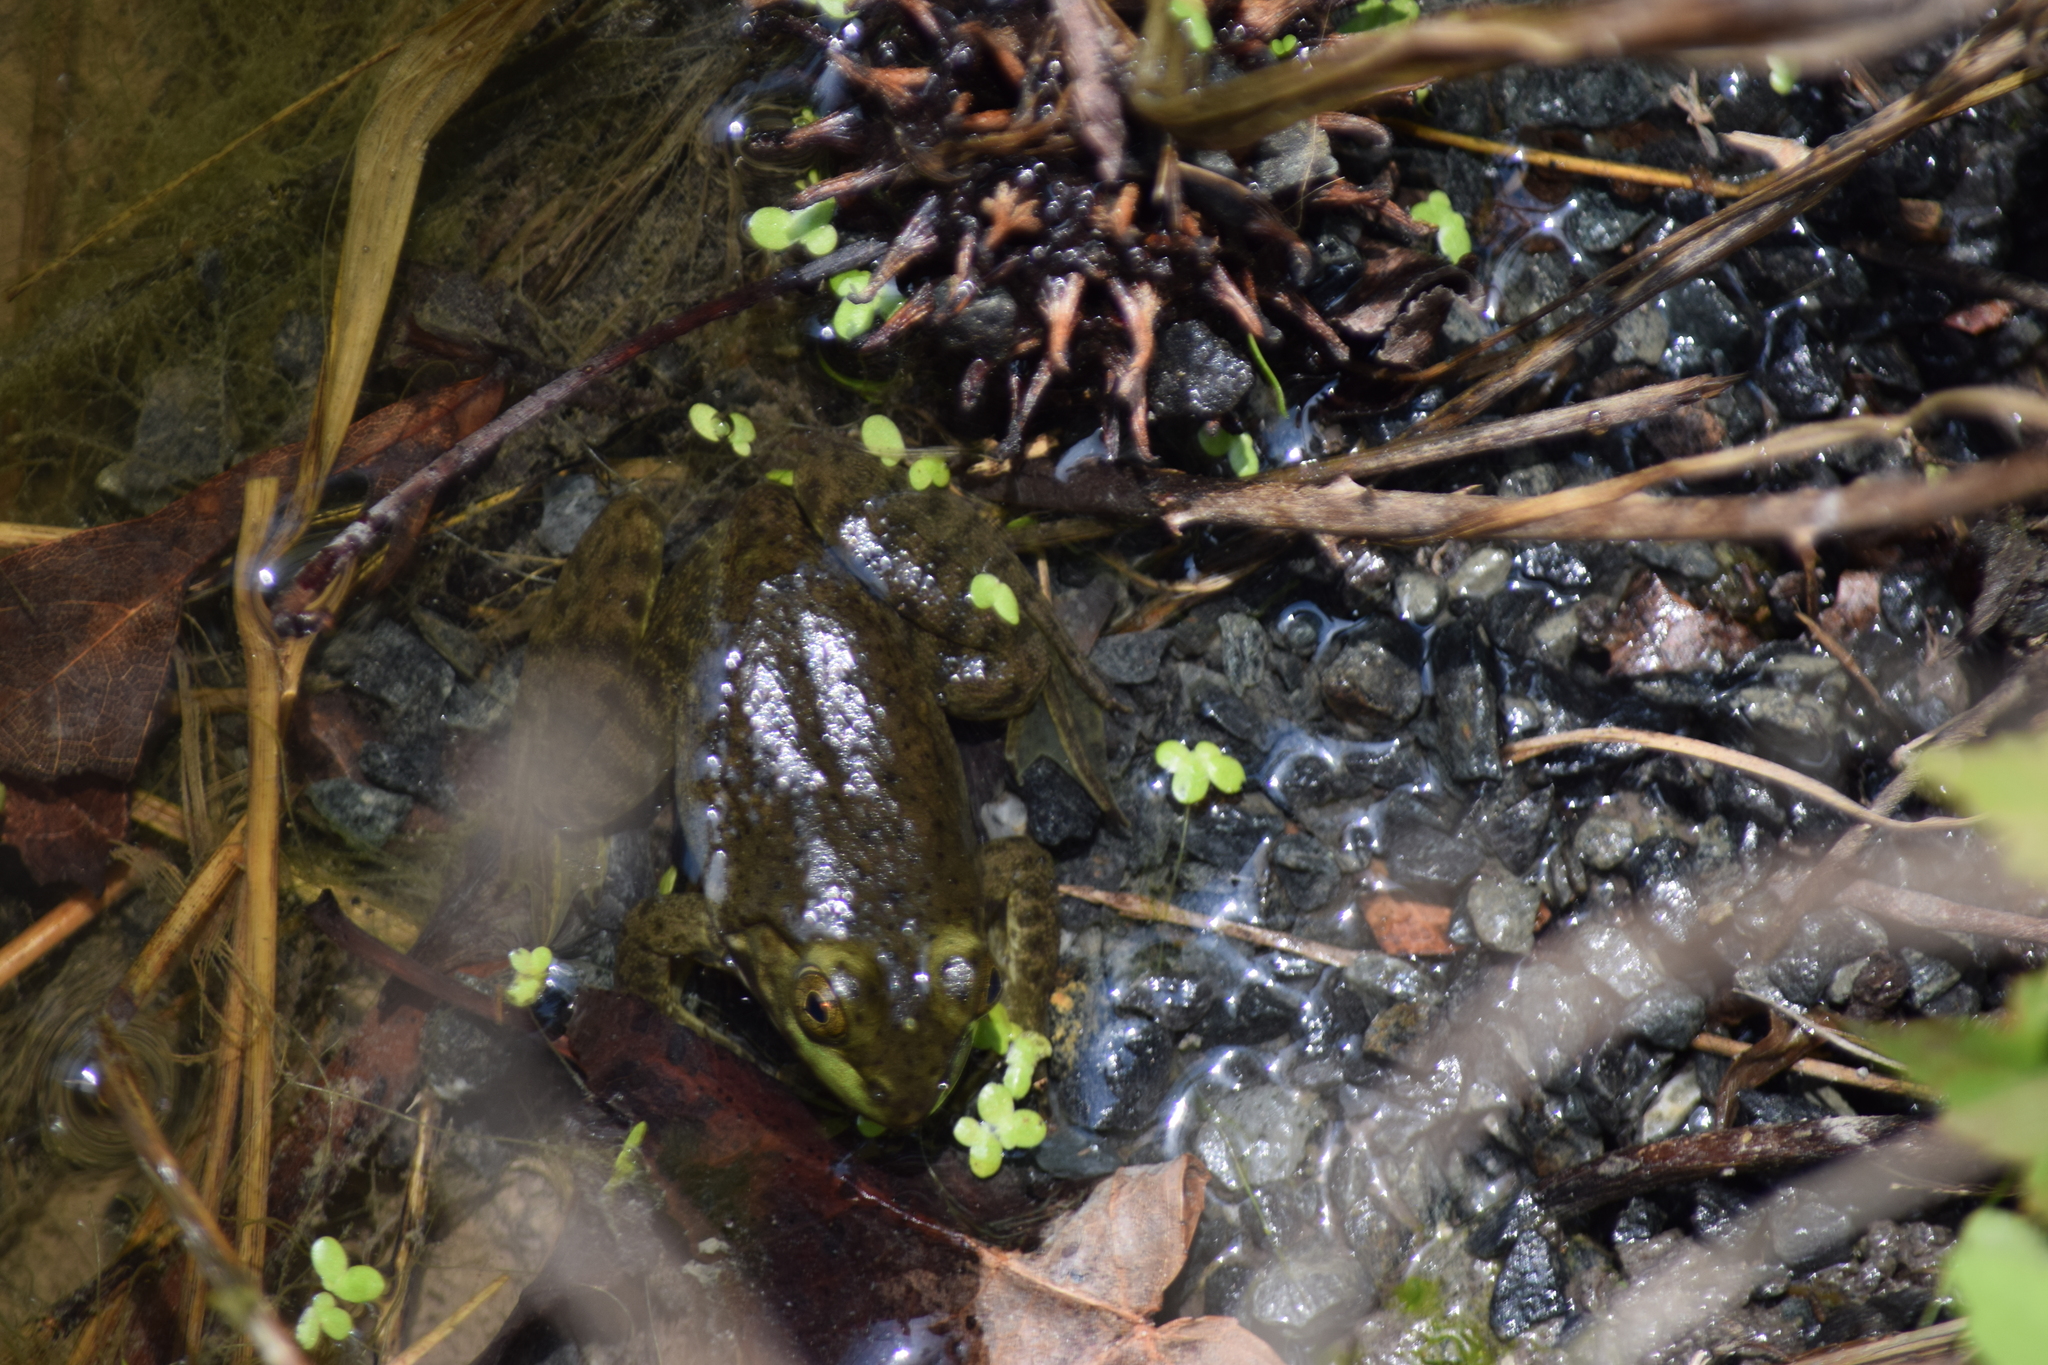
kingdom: Animalia
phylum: Chordata
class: Amphibia
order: Anura
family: Ranidae
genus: Lithobates
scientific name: Lithobates catesbeianus
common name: American bullfrog
